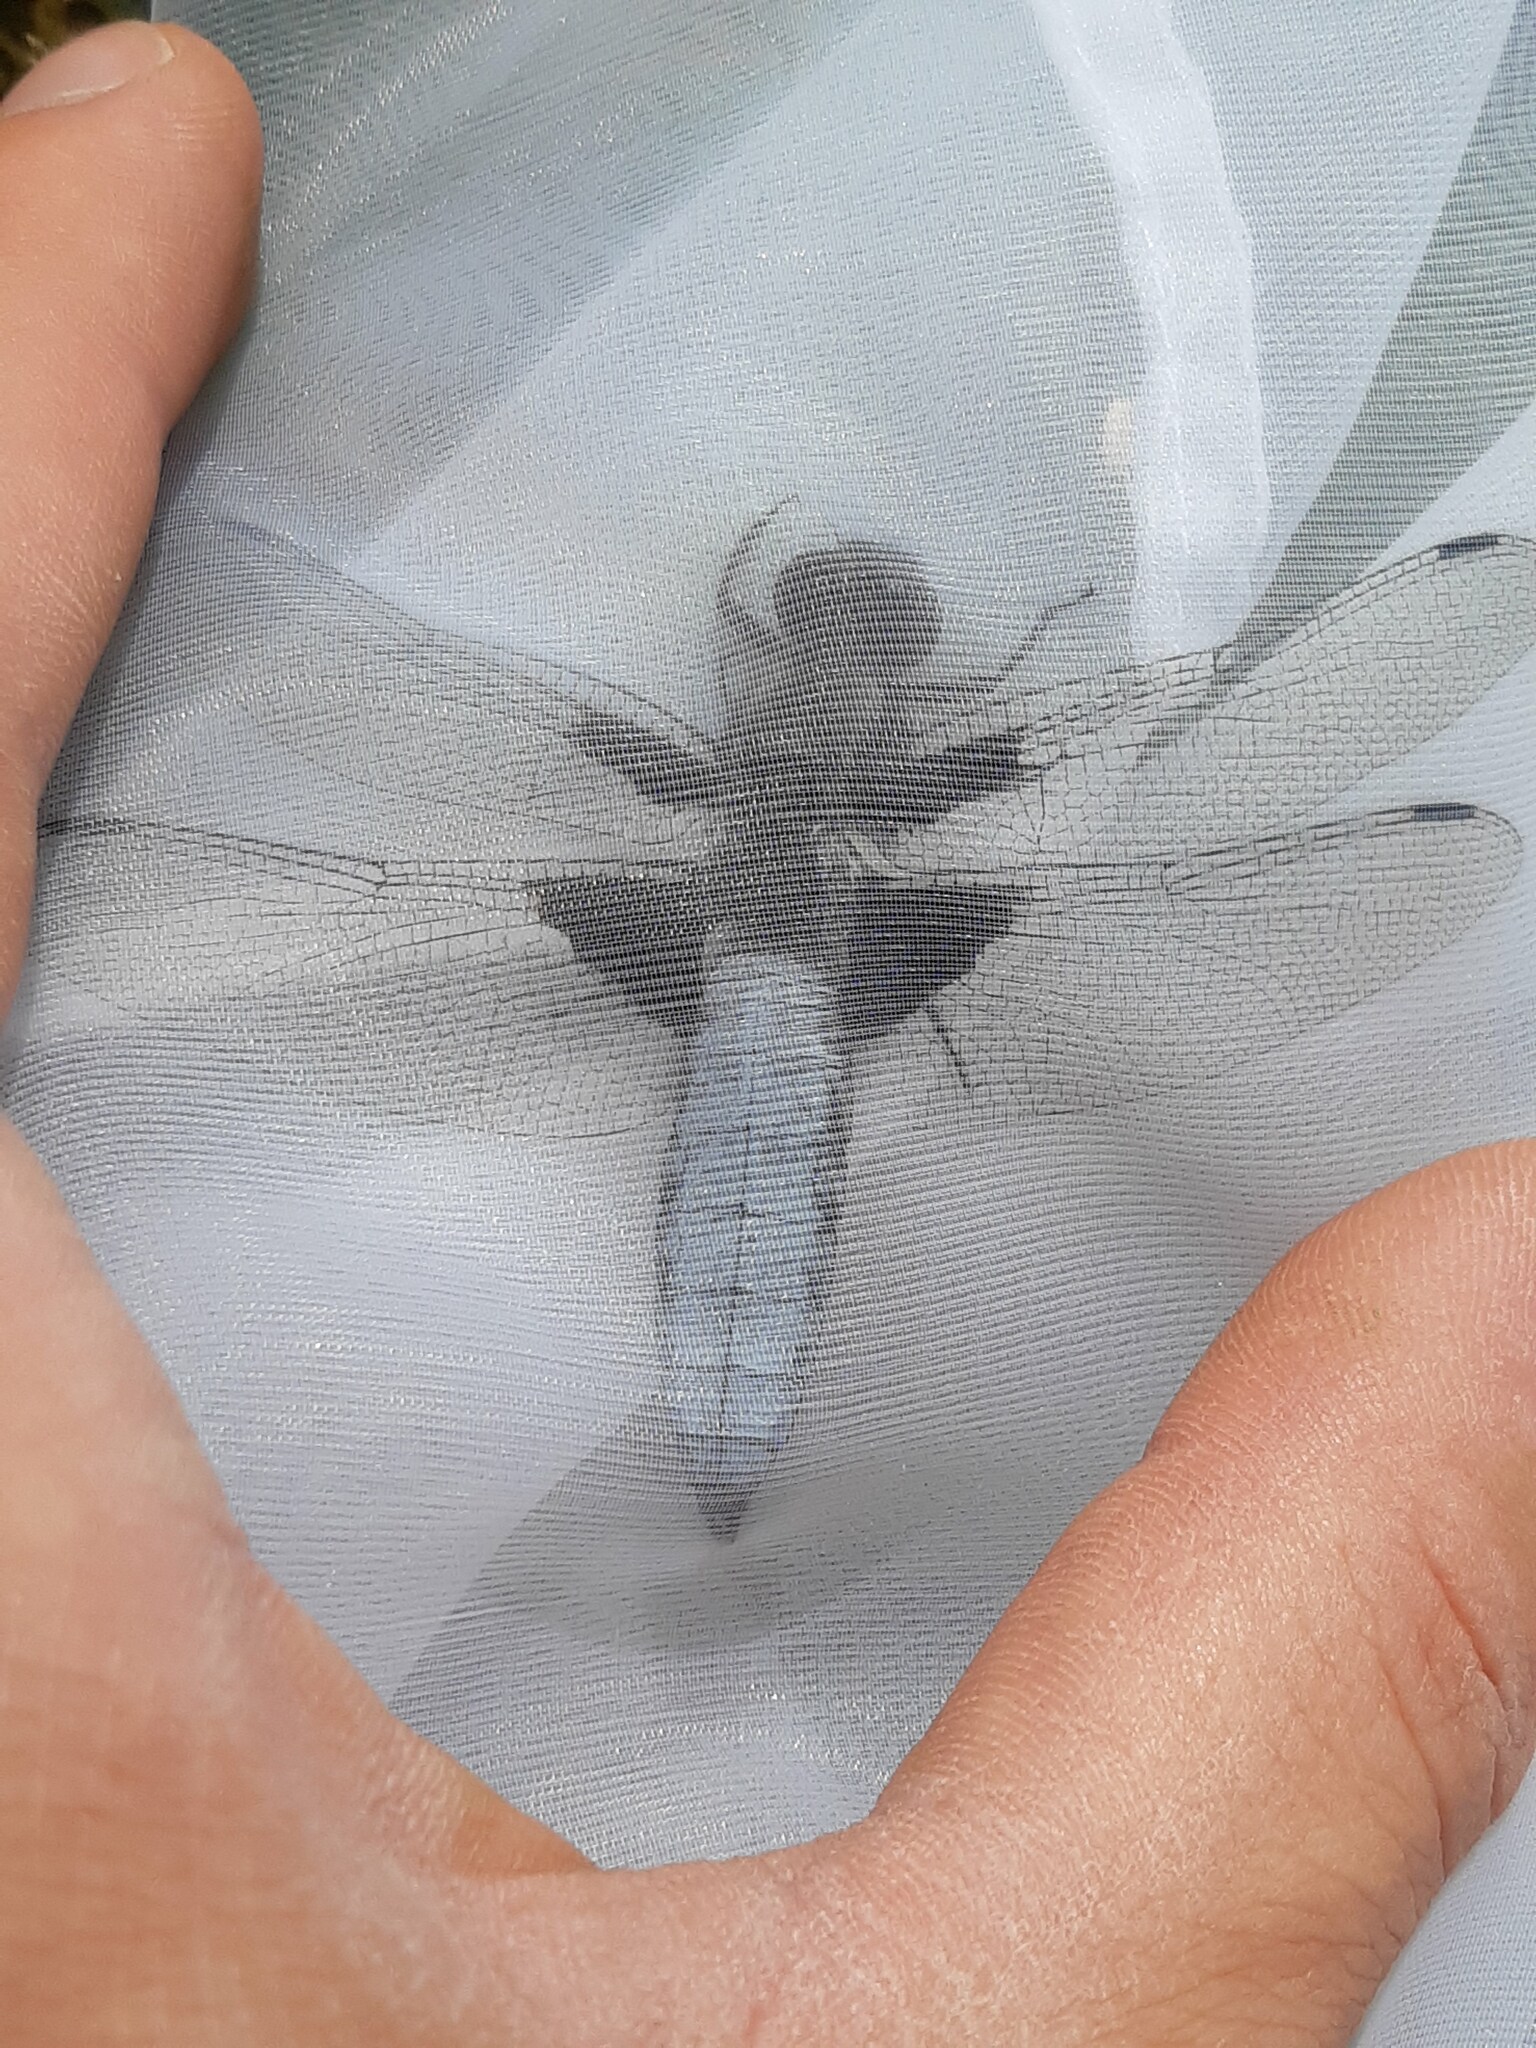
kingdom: Animalia
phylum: Arthropoda
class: Insecta
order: Odonata
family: Libellulidae
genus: Libellula
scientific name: Libellula depressa
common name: Broad-bodied chaser
